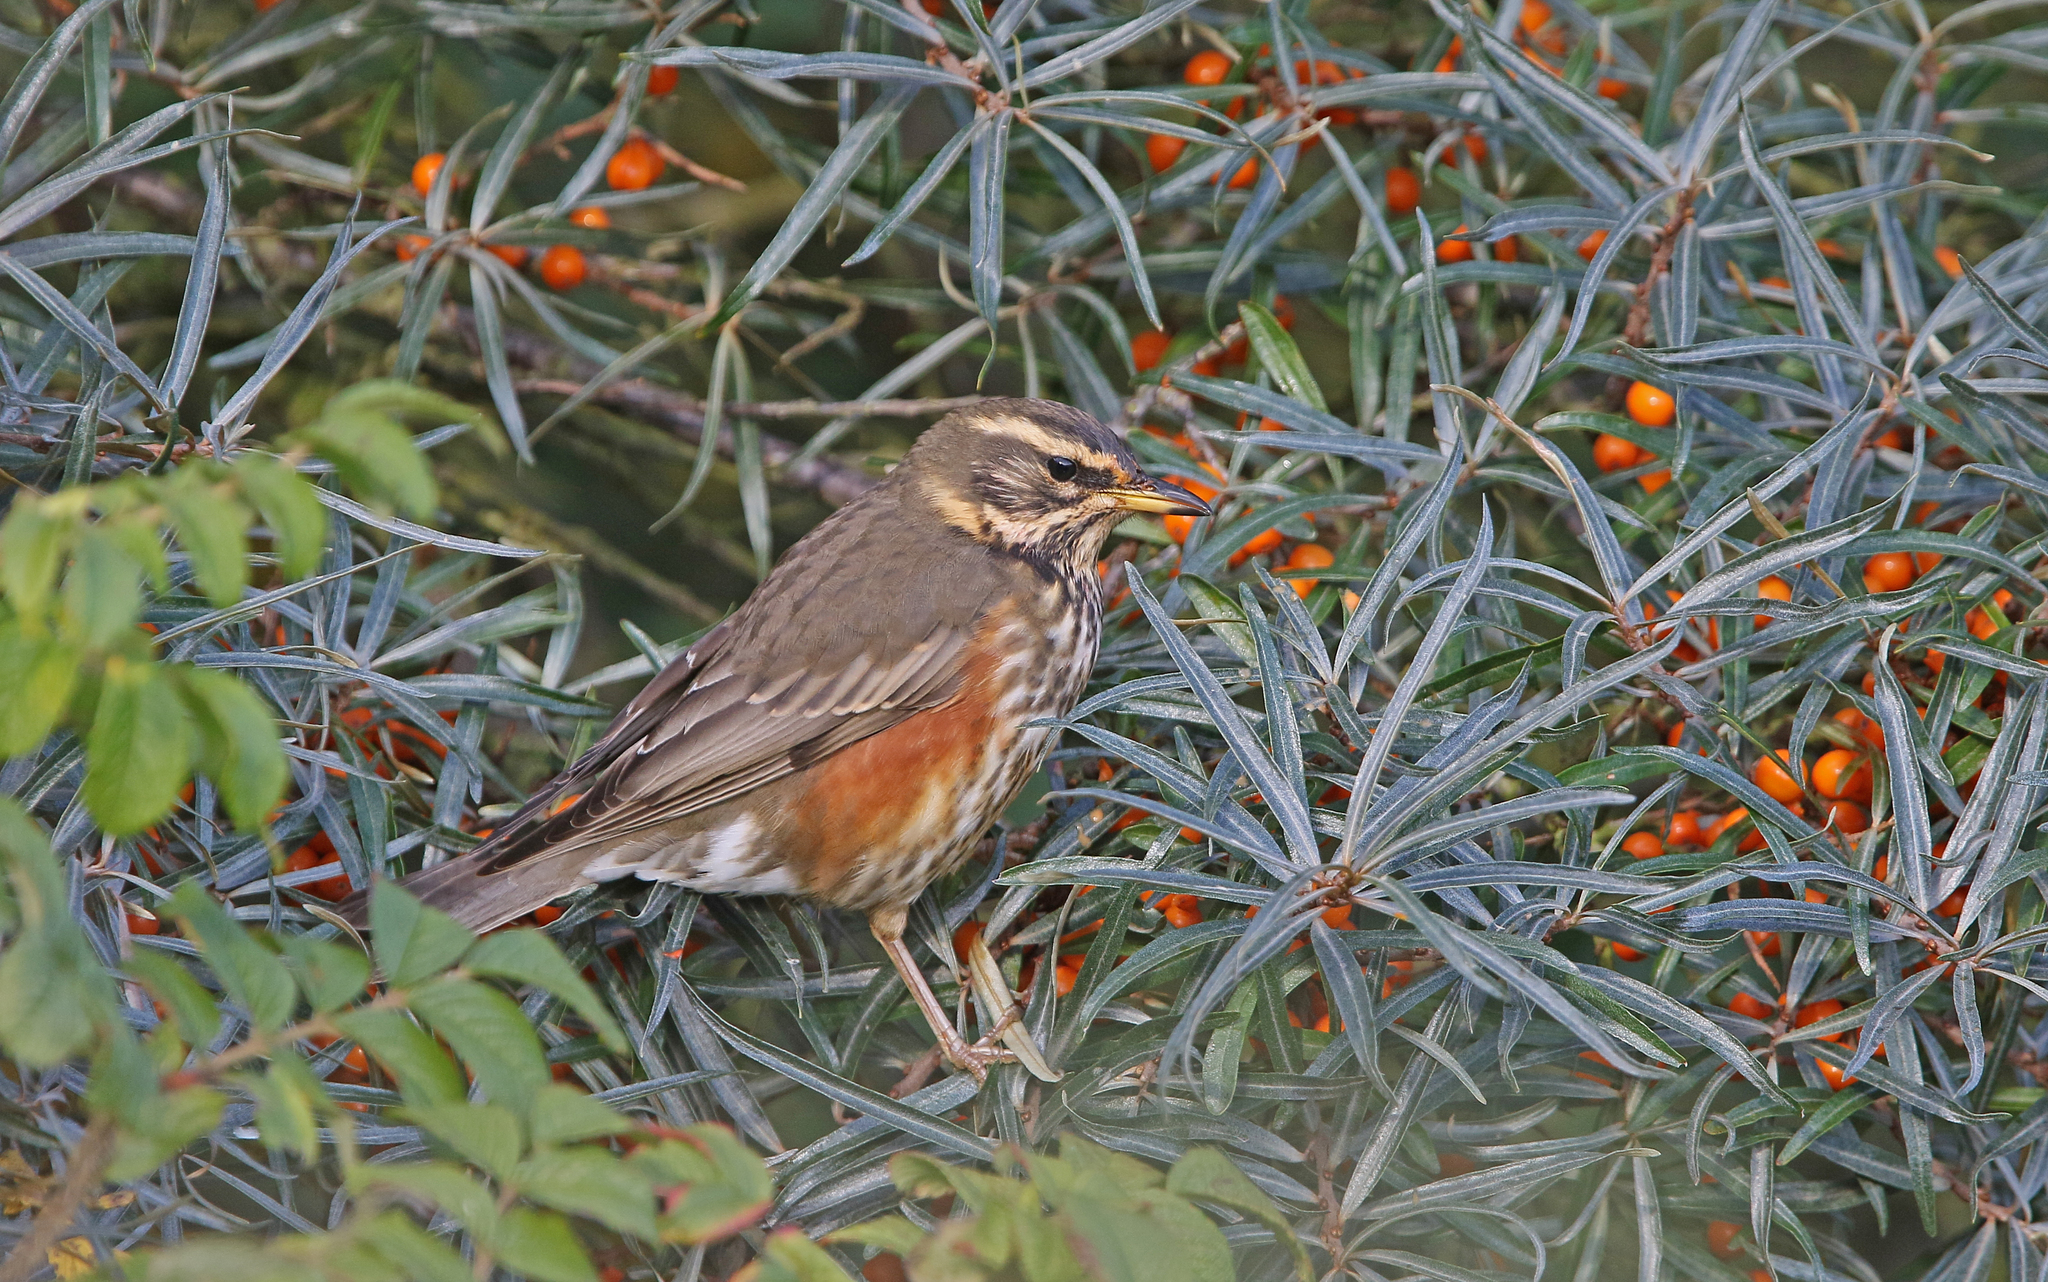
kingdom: Animalia
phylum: Chordata
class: Aves
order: Passeriformes
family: Turdidae
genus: Turdus
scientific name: Turdus iliacus
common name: Redwing
